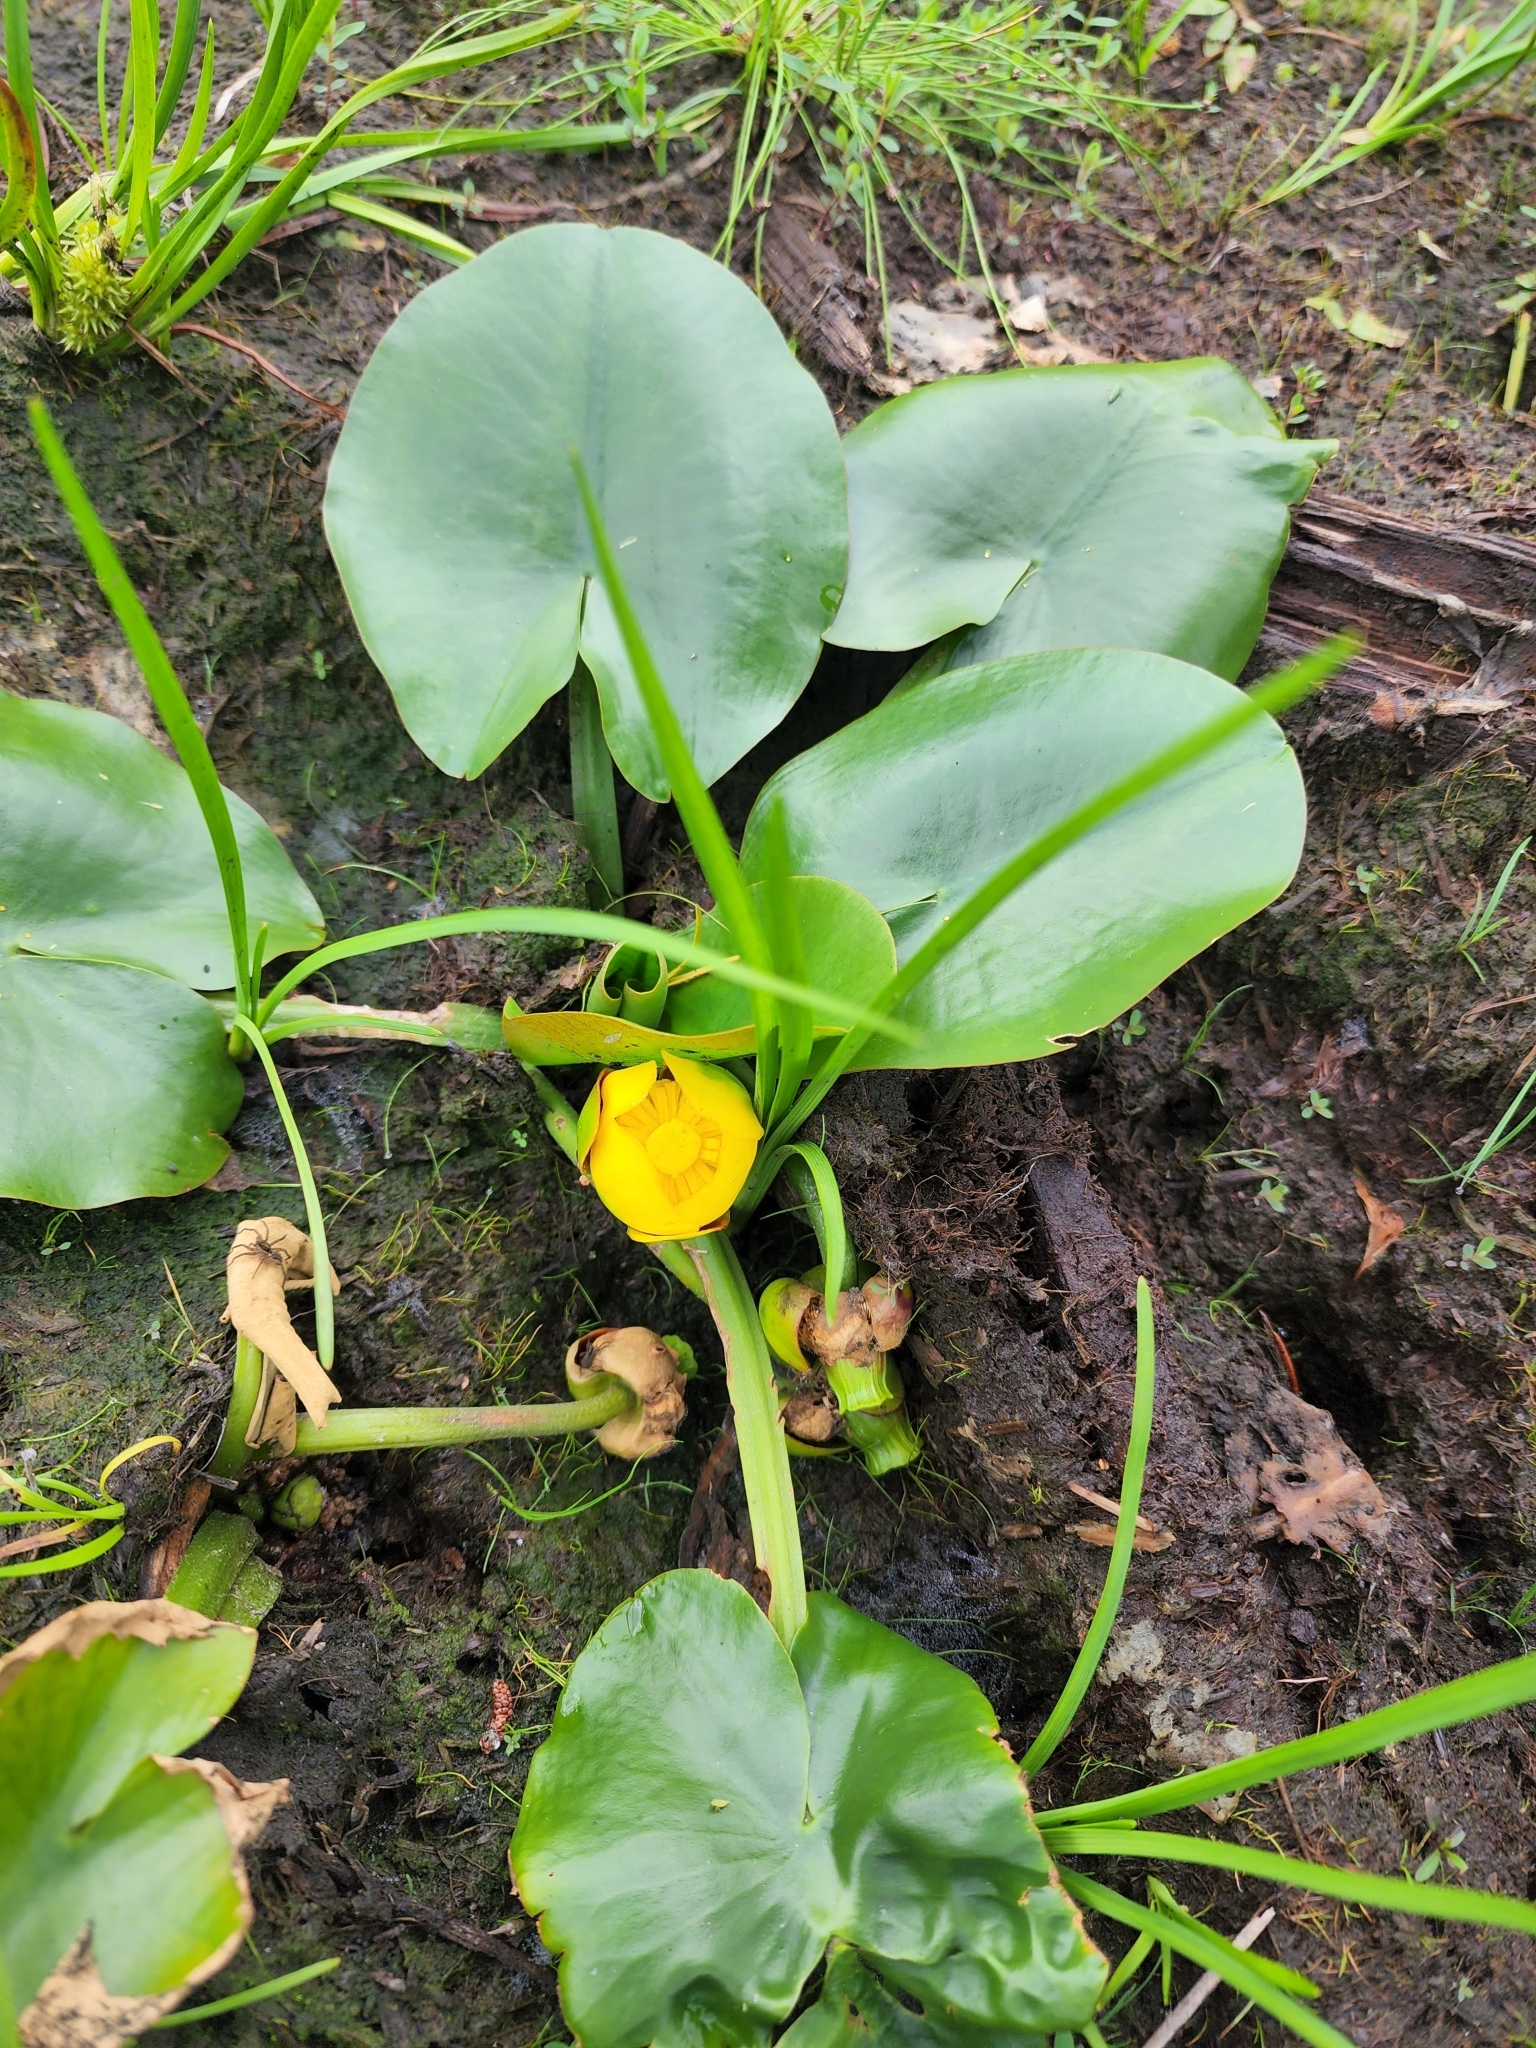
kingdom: Plantae
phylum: Tracheophyta
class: Magnoliopsida
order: Nymphaeales
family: Nymphaeaceae
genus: Nuphar
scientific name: Nuphar variegata
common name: Beaver-root
